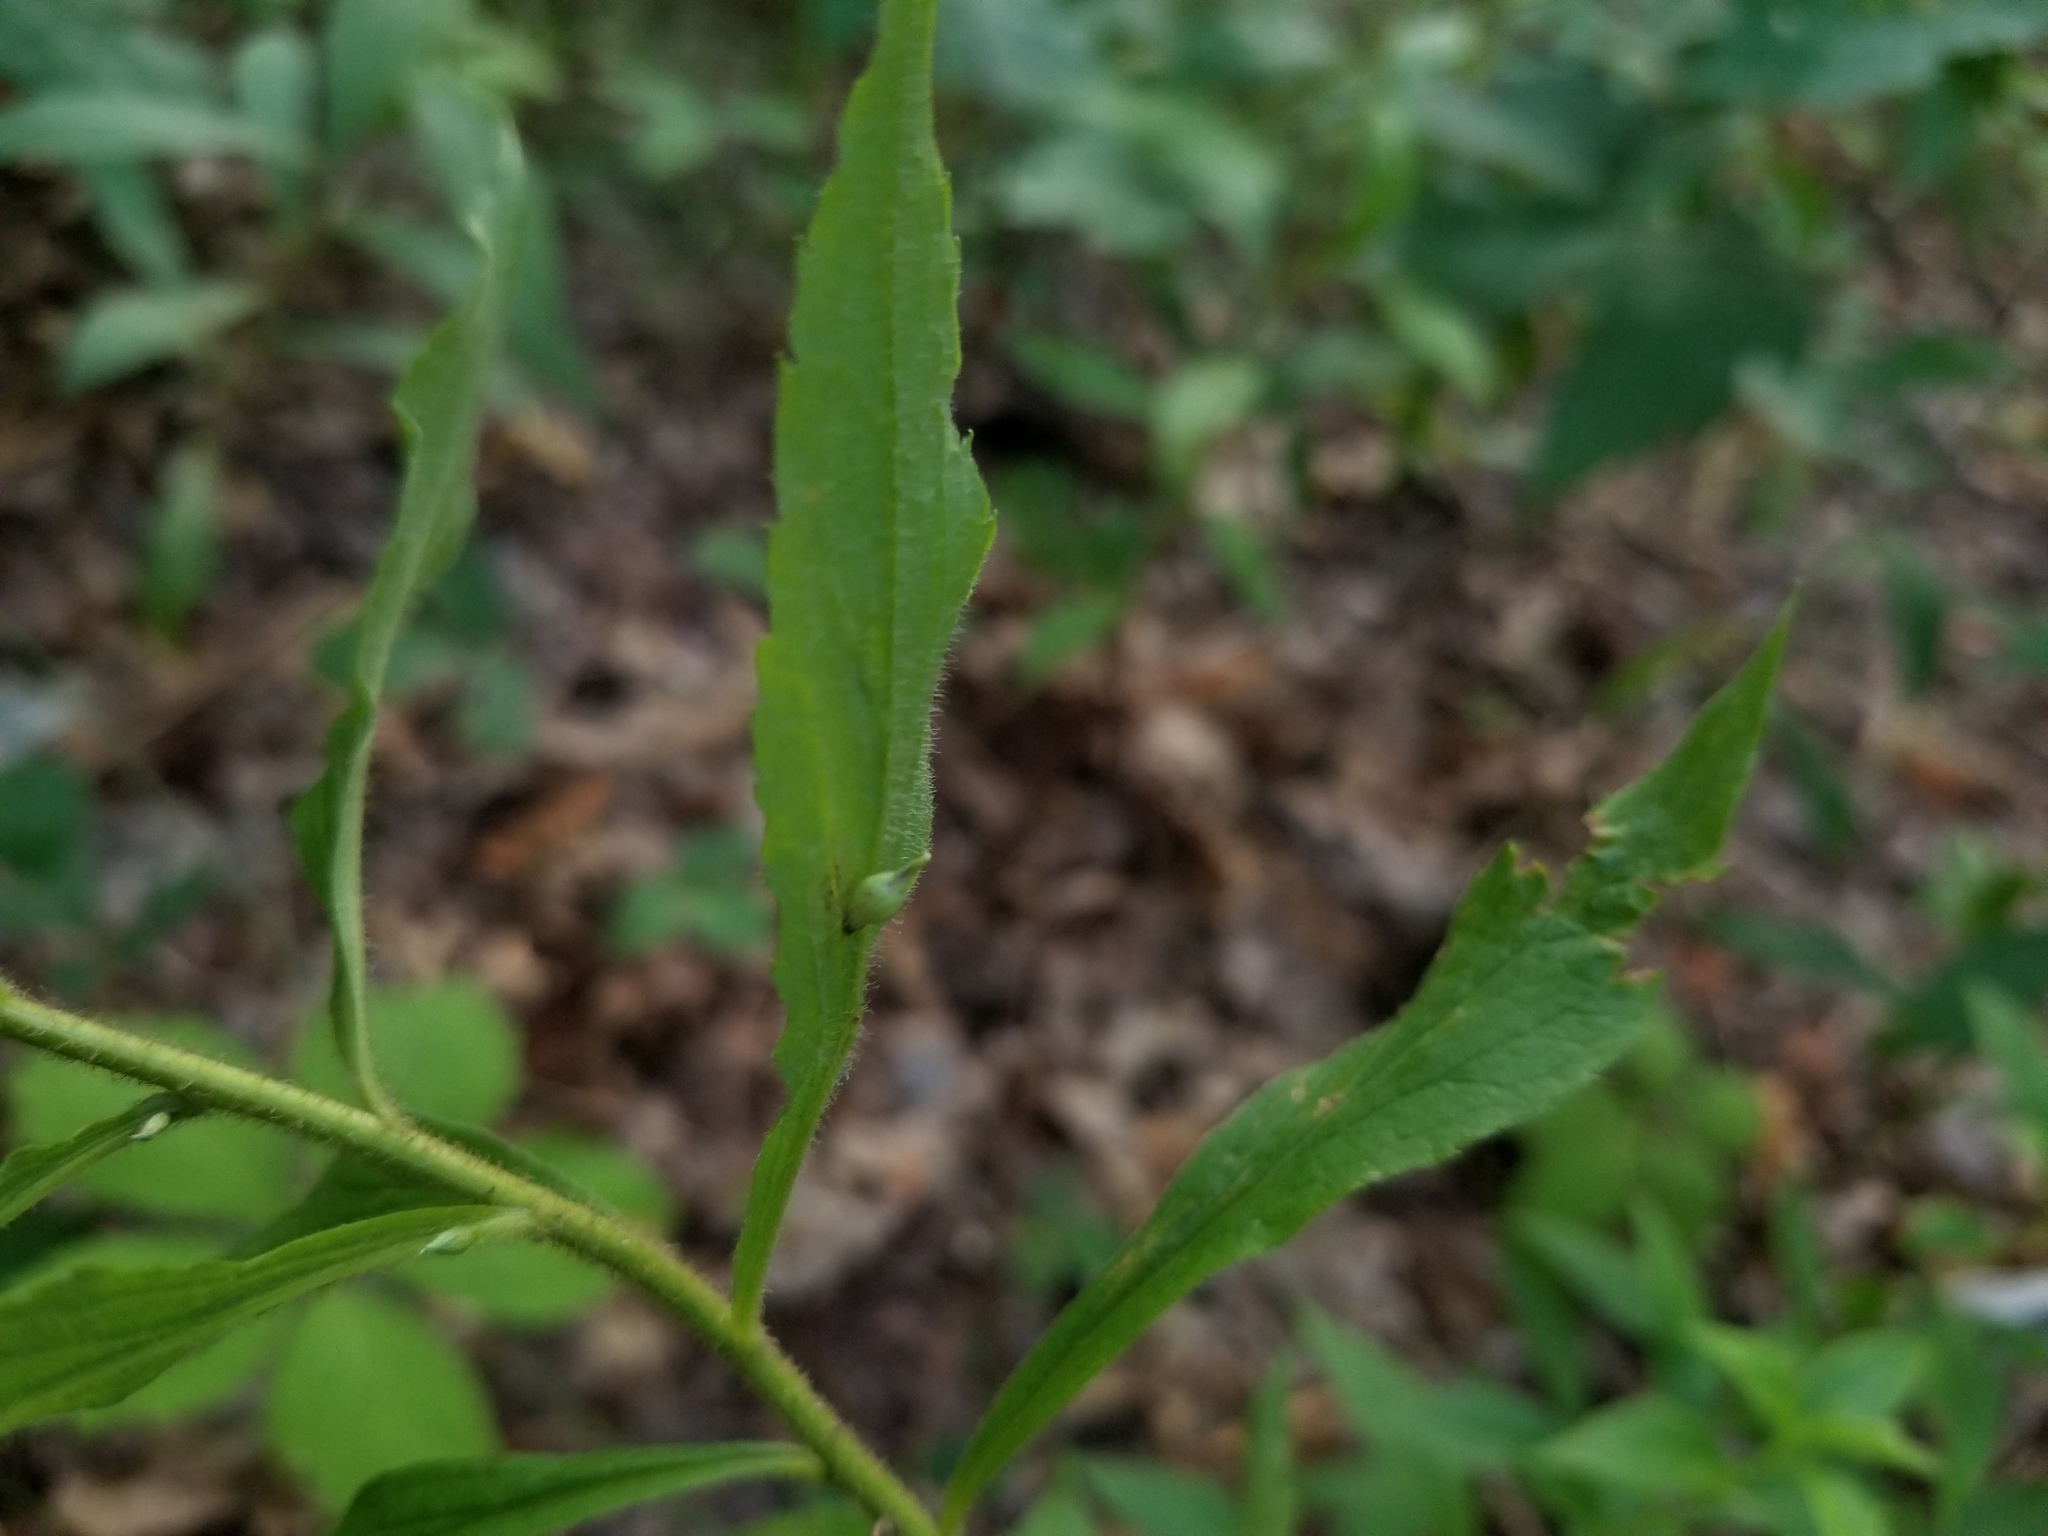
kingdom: Animalia
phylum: Arthropoda
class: Insecta
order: Diptera
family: Cecidomyiidae
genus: Rhopalomyia
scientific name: Rhopalomyia clarkei
